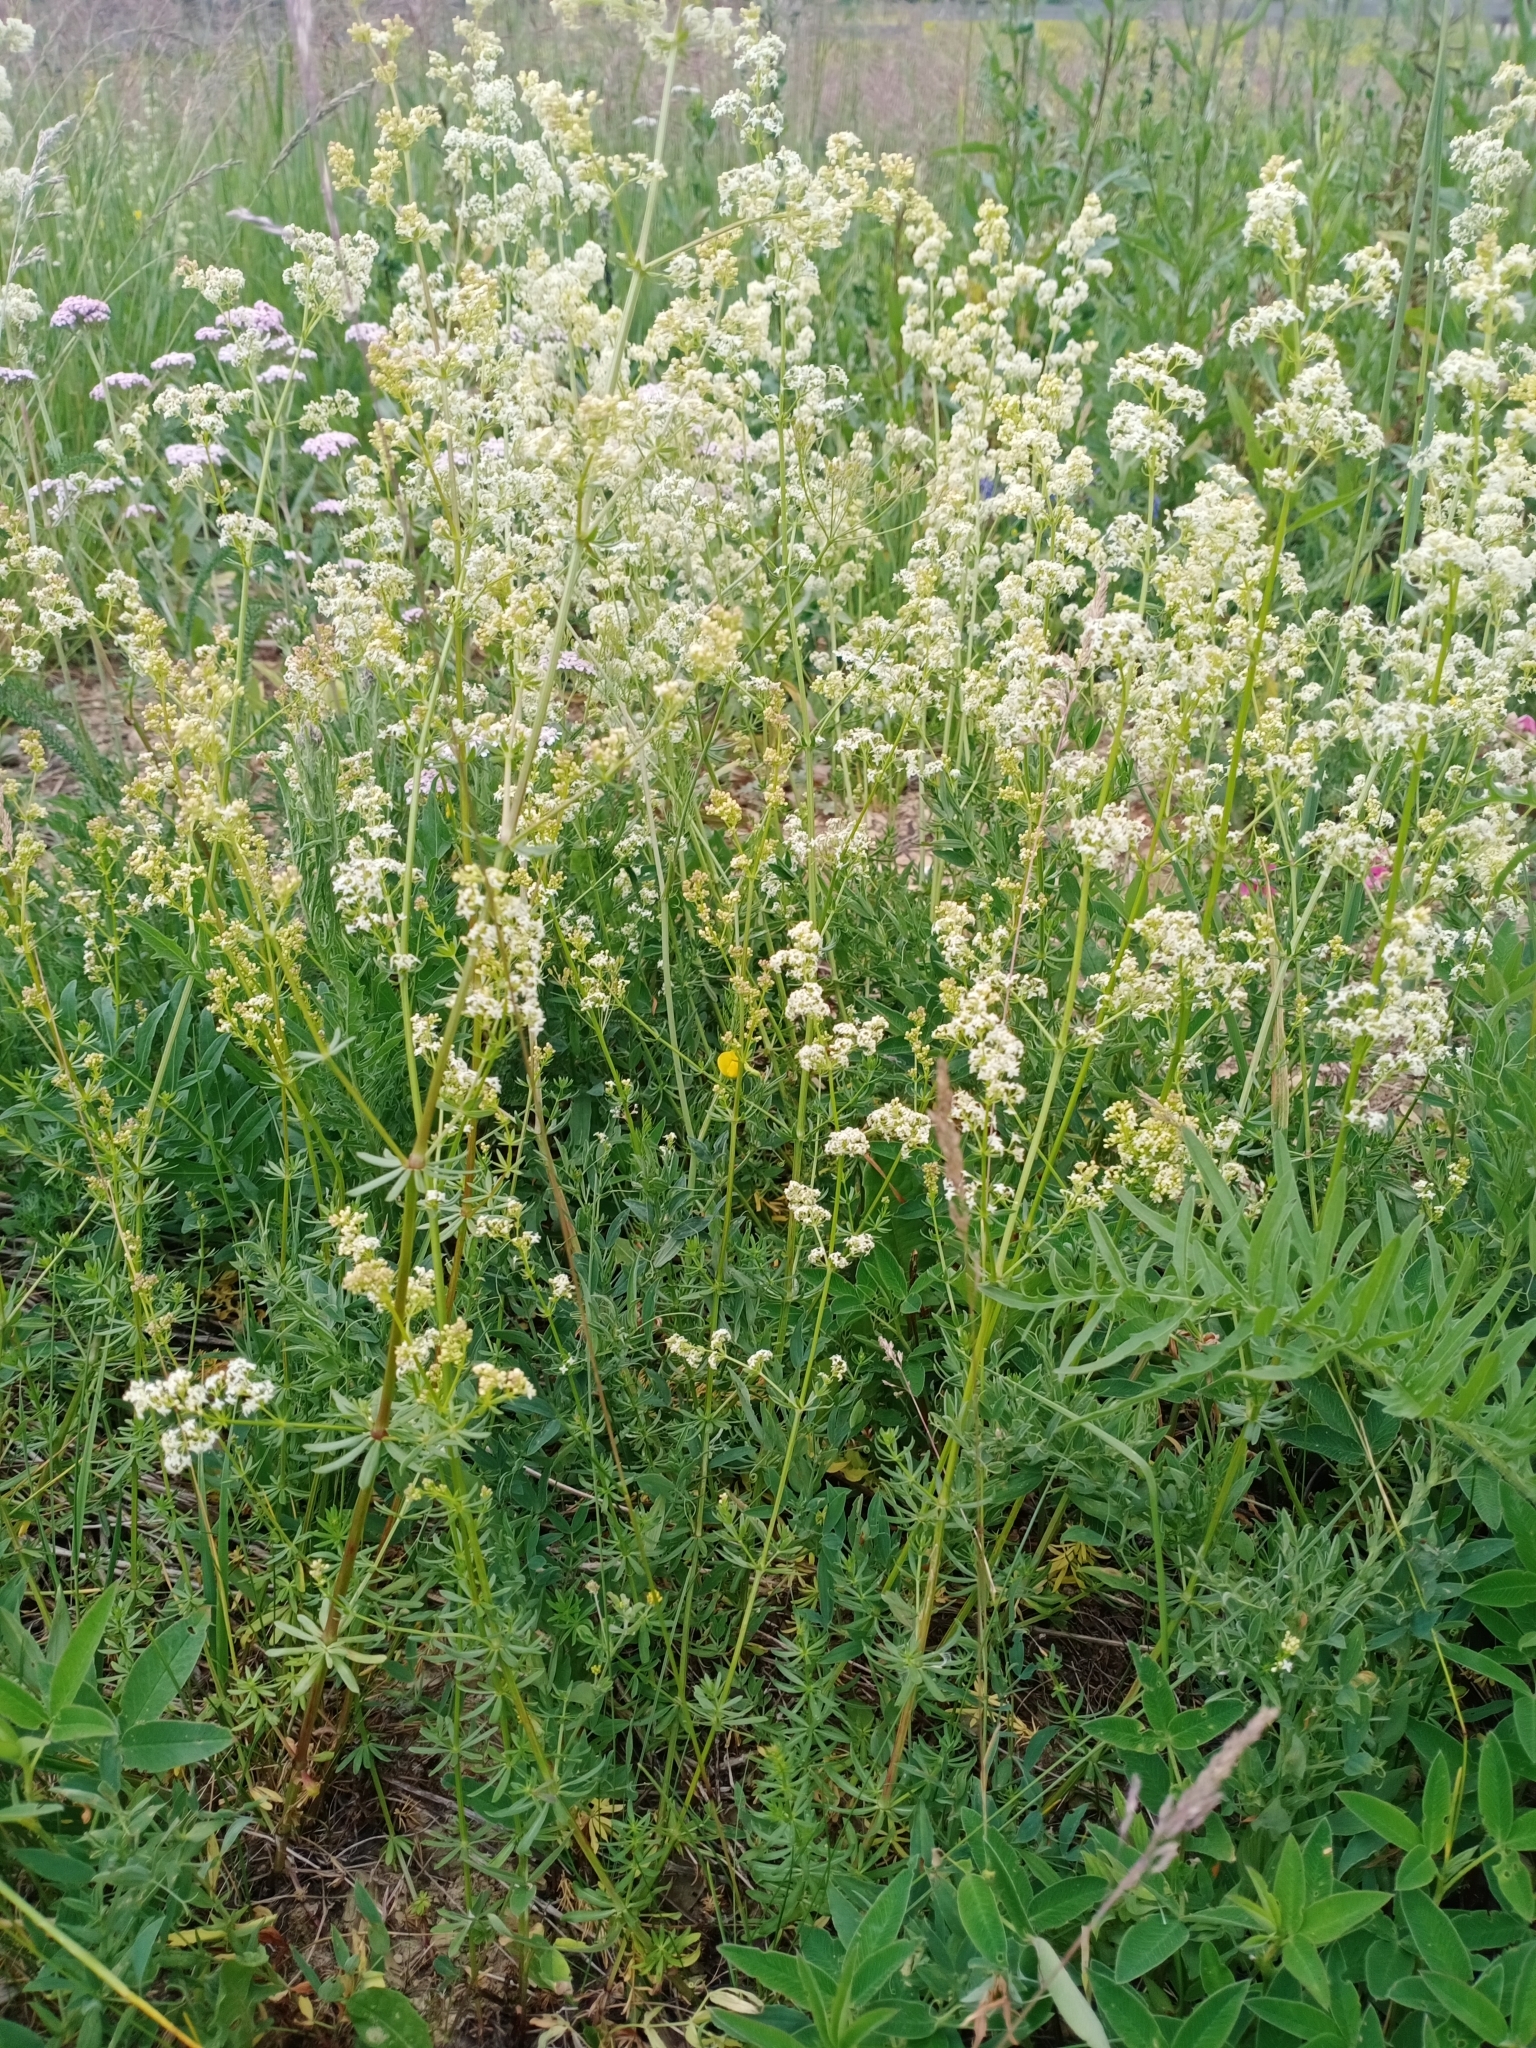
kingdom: Plantae
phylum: Tracheophyta
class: Magnoliopsida
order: Gentianales
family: Rubiaceae
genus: Galium
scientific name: Galium mollugo
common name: Hedge bedstraw
